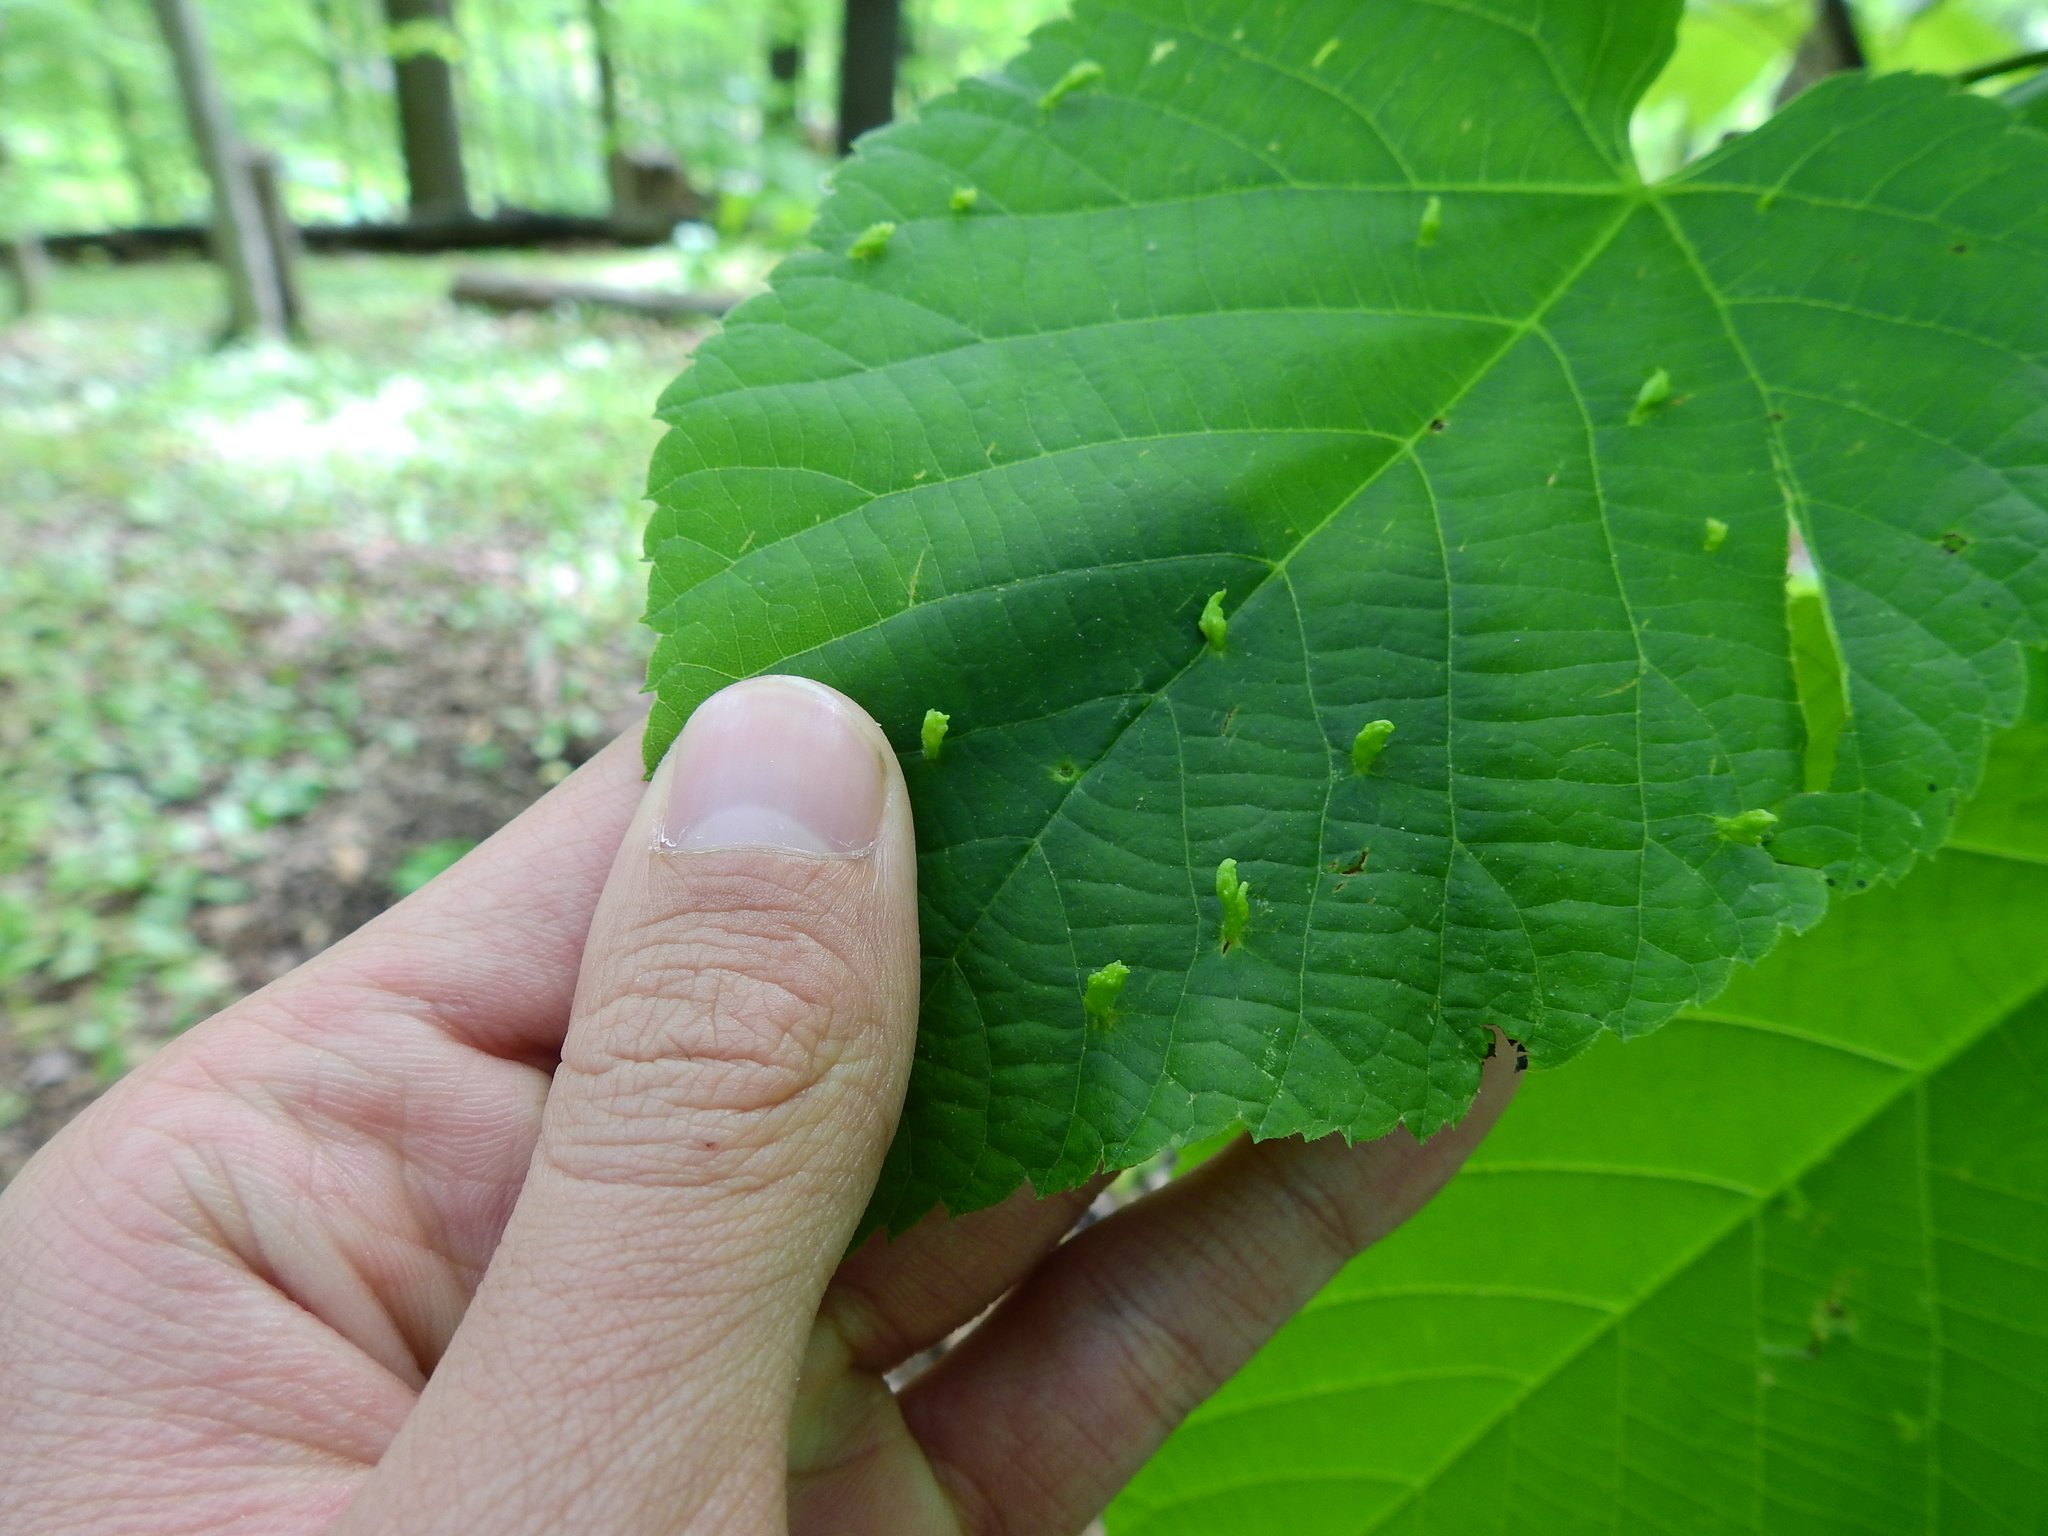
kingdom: Animalia
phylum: Arthropoda
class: Arachnida
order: Trombidiformes
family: Eriophyidae
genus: Eriophyes
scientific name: Eriophyes tiliae
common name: Red nail gall mite
